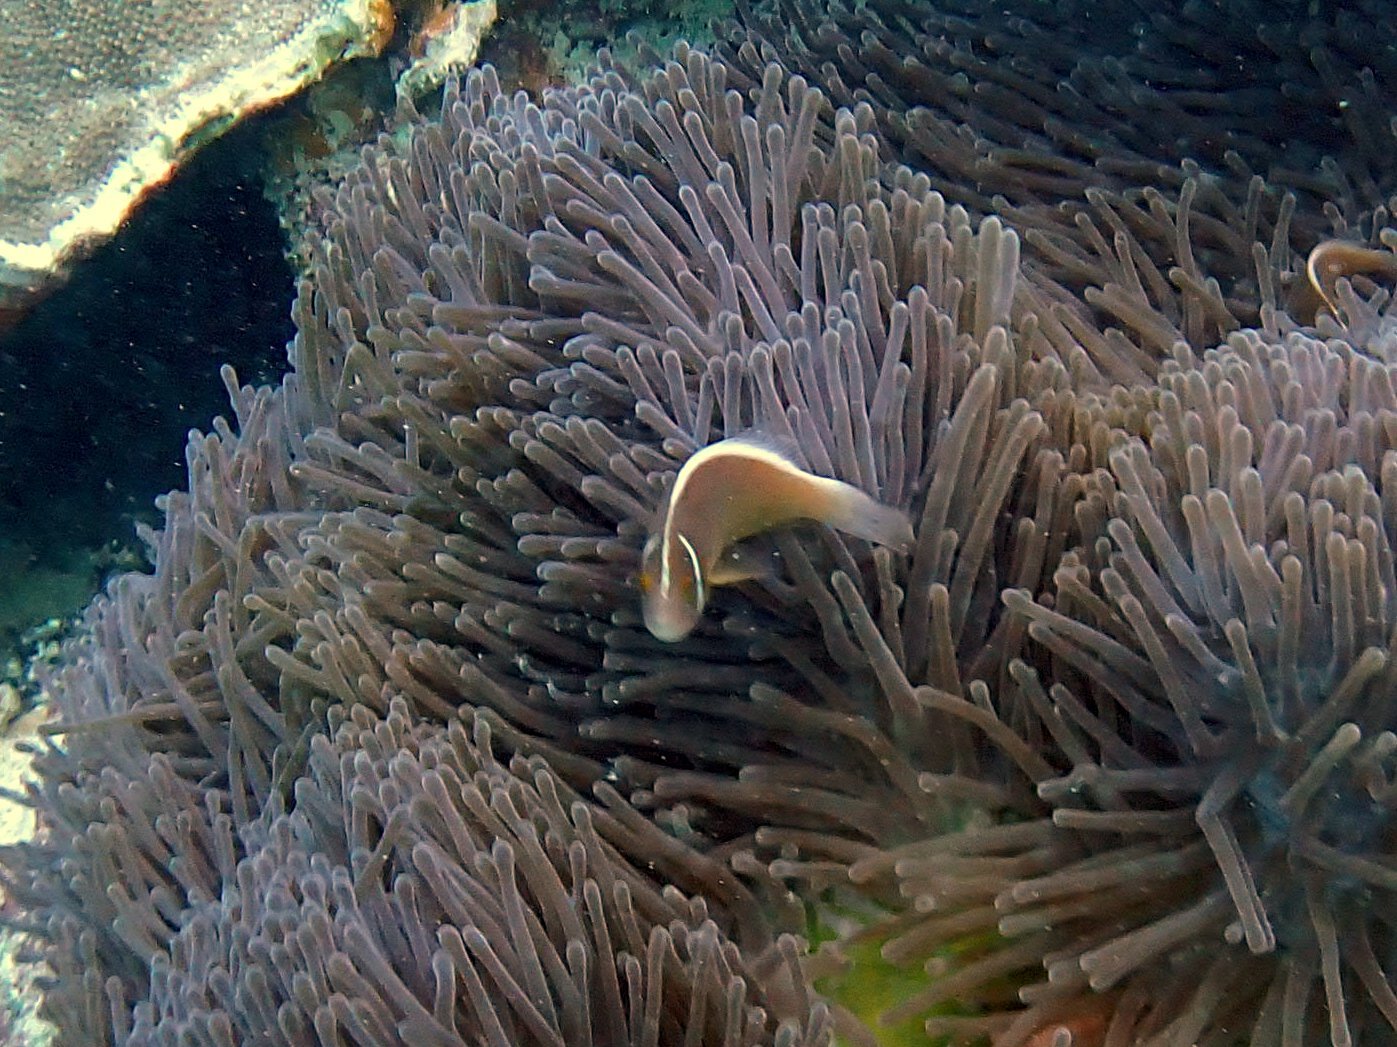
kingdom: Animalia
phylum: Chordata
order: Perciformes
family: Pomacentridae
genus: Amphiprion
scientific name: Amphiprion perideraion
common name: Pink anemonefish
